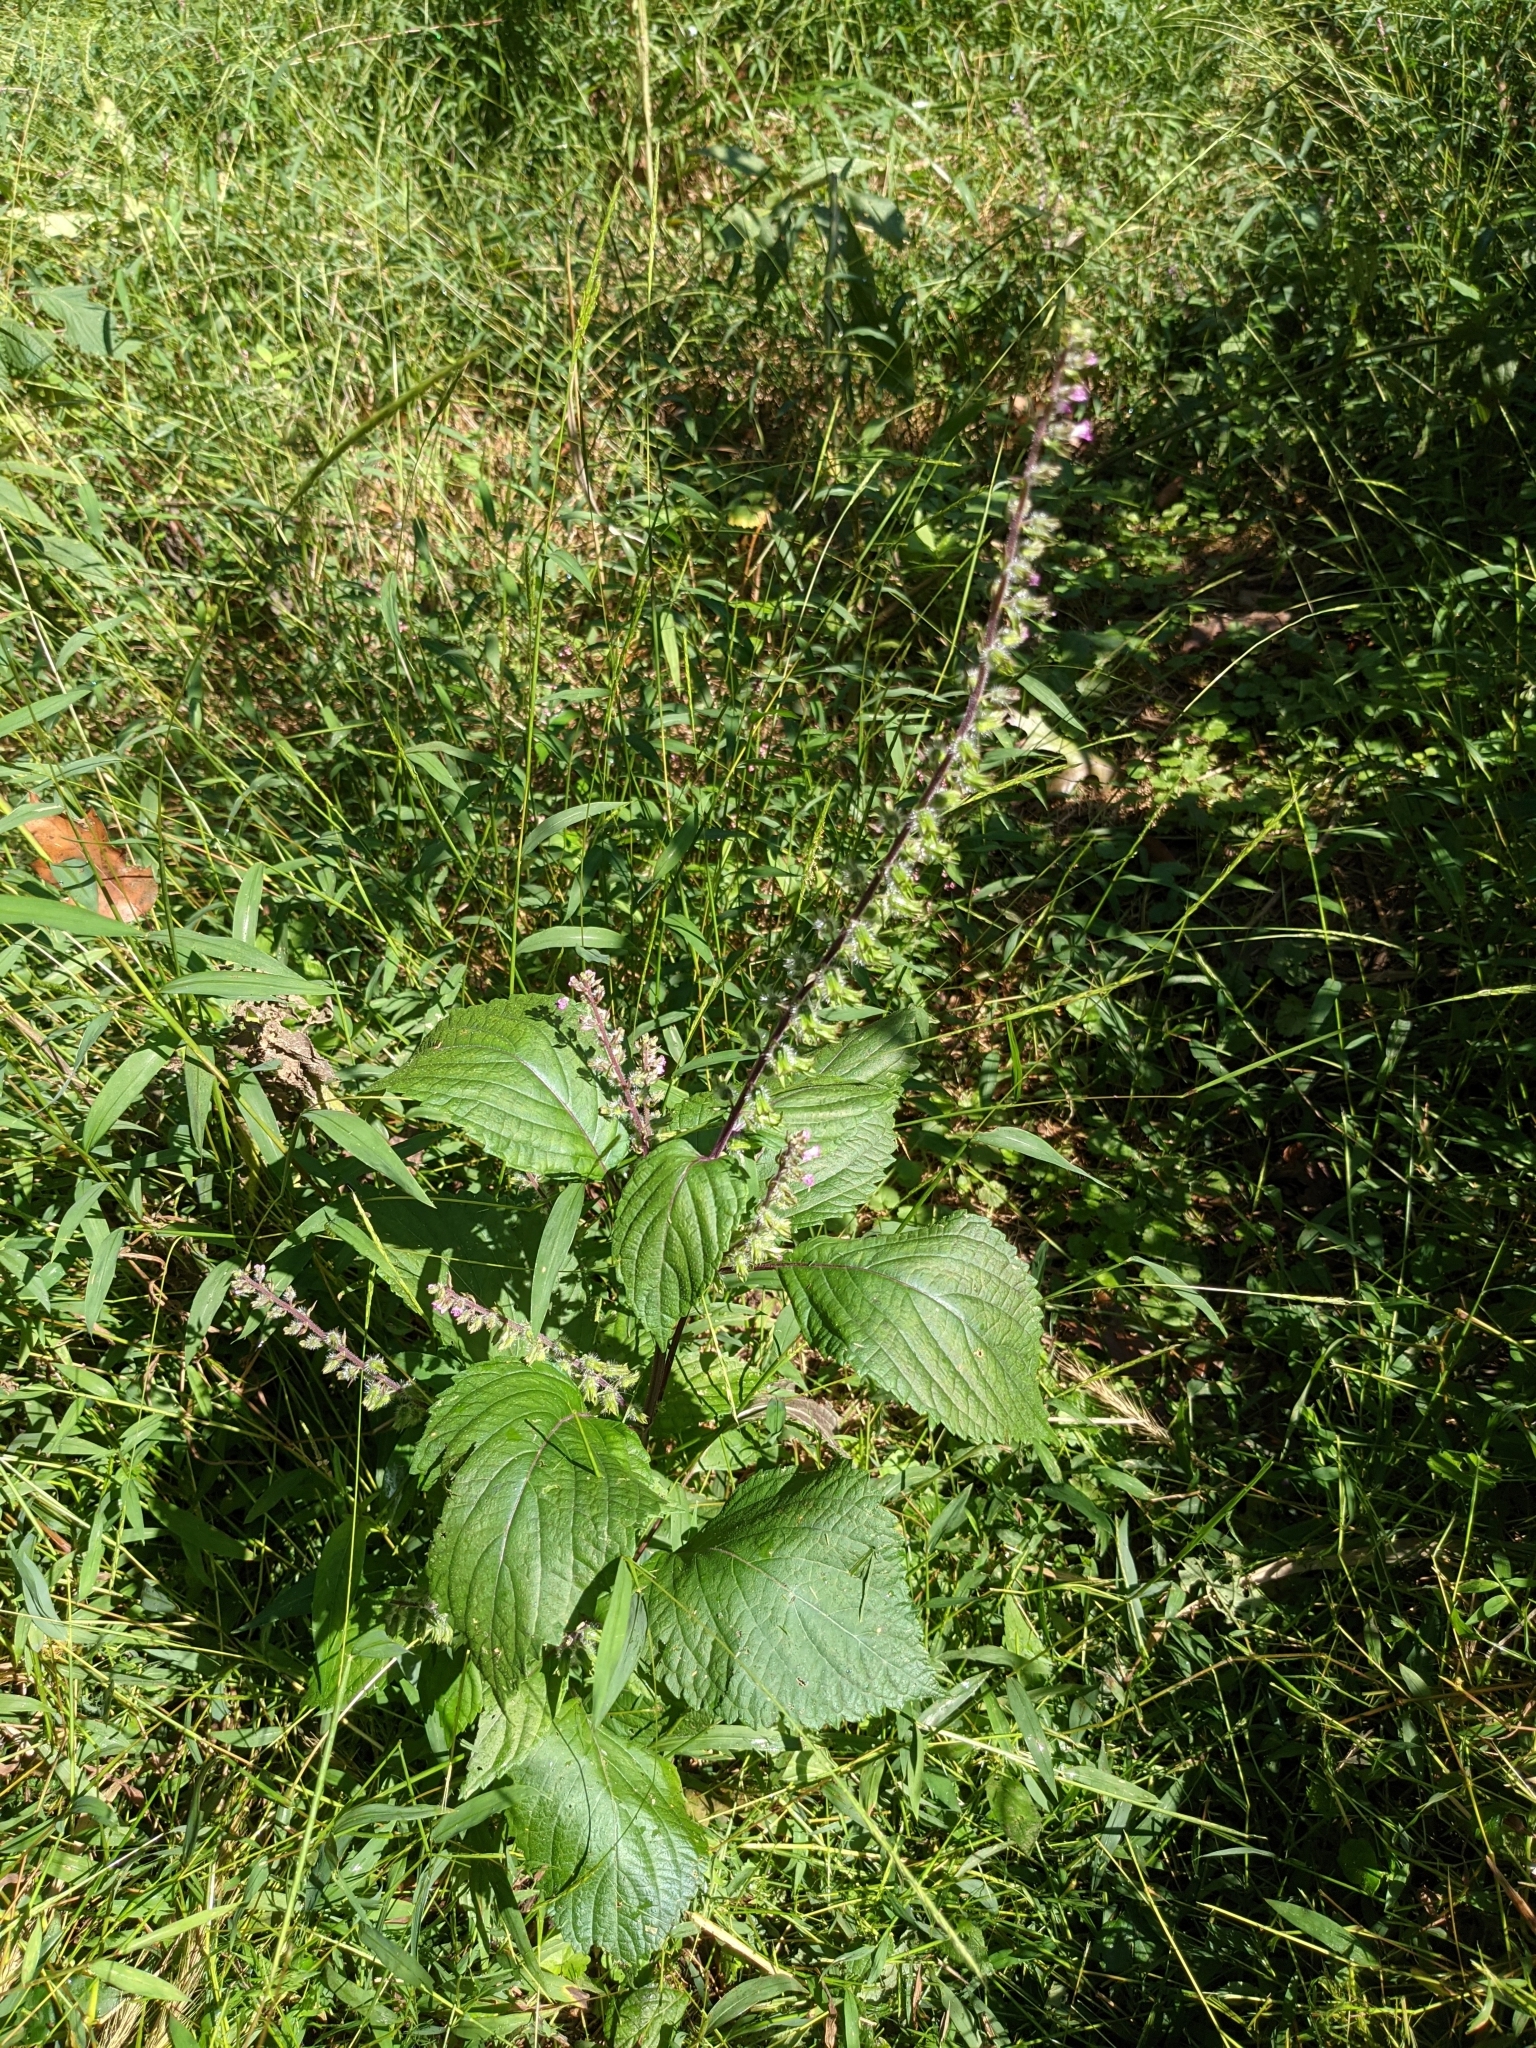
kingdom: Plantae
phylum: Tracheophyta
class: Magnoliopsida
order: Lamiales
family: Lamiaceae
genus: Perilla
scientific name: Perilla frutescens
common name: Perilla
